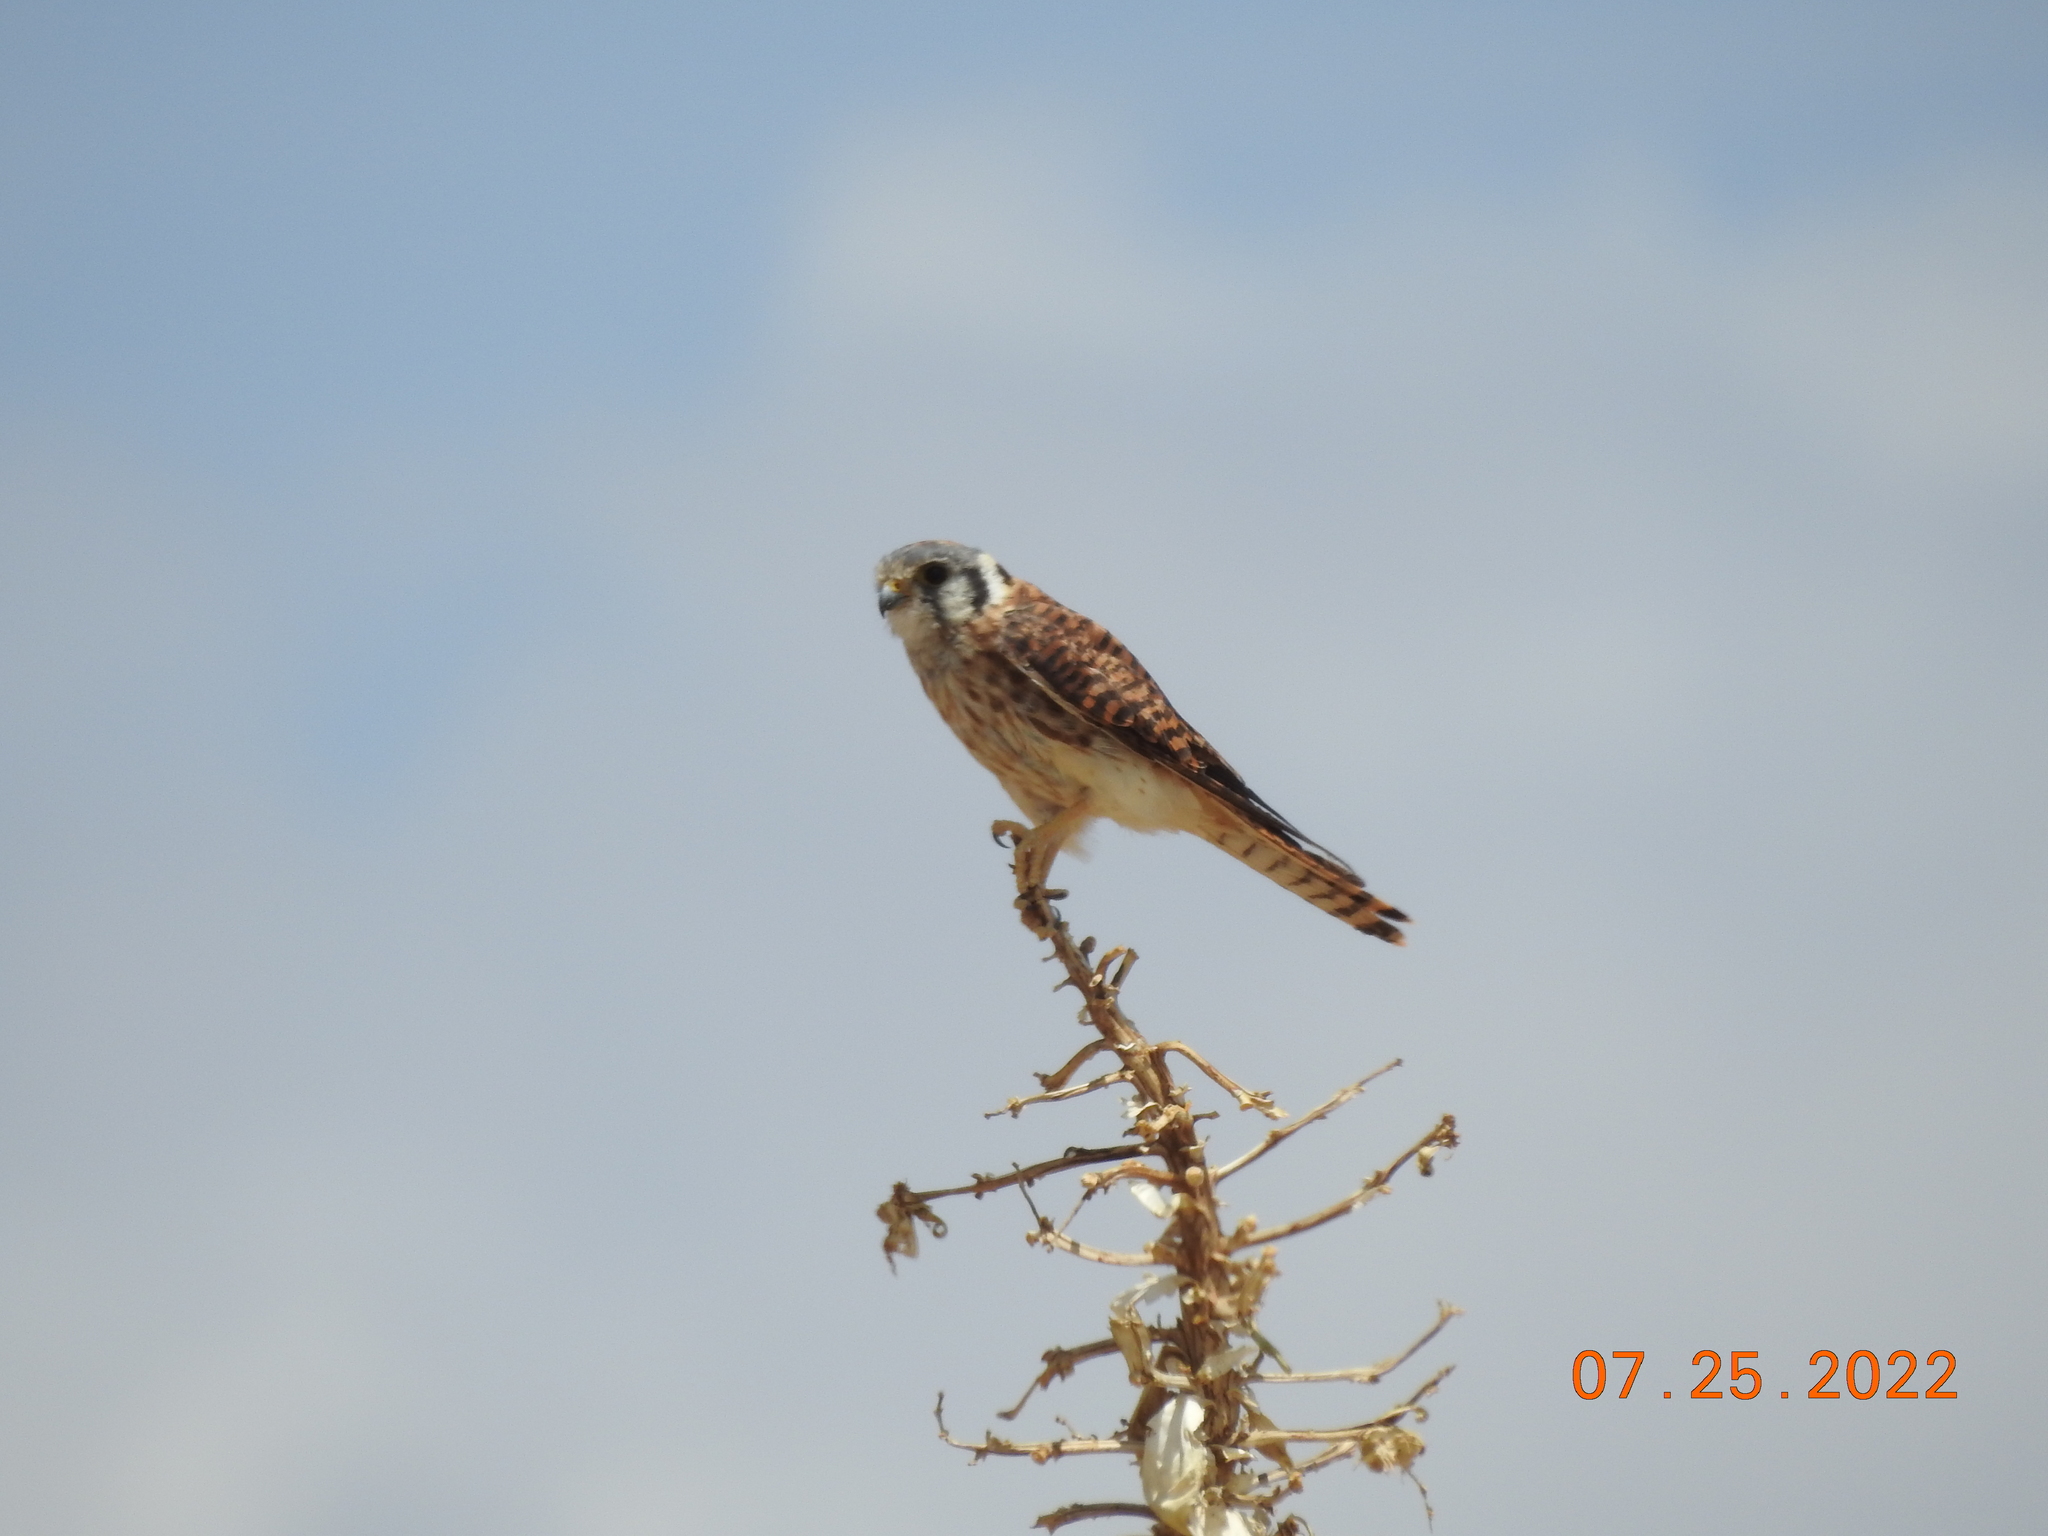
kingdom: Animalia
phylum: Chordata
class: Aves
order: Falconiformes
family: Falconidae
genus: Falco
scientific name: Falco sparverius
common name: American kestrel
